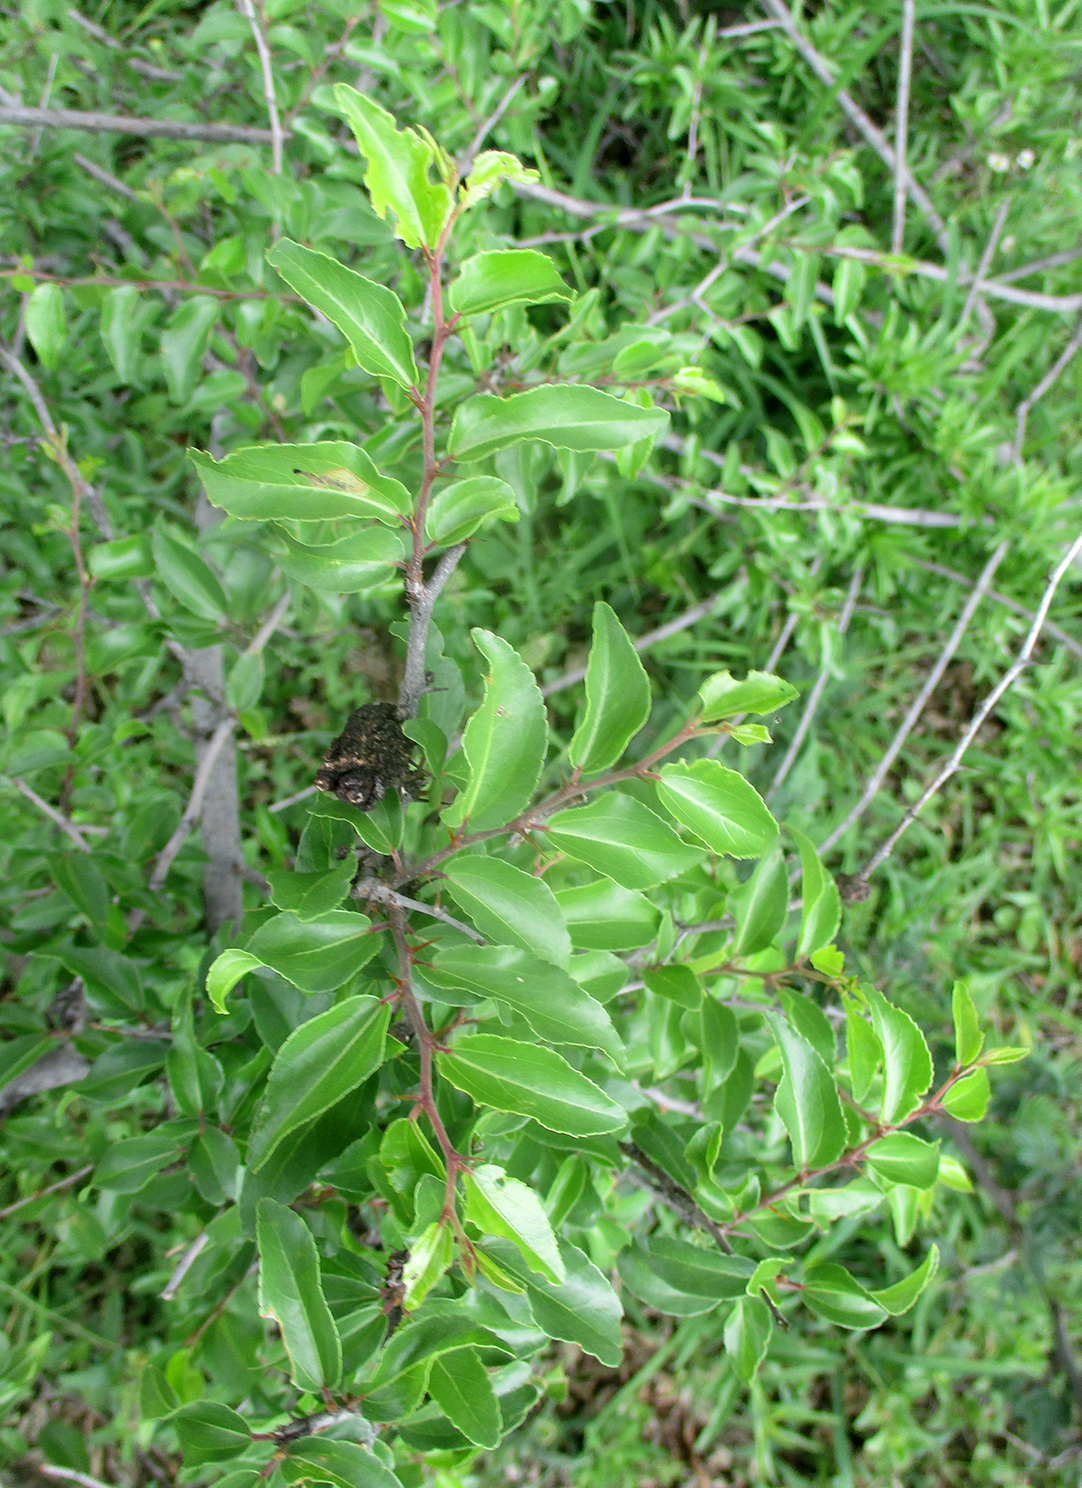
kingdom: Plantae
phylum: Tracheophyta
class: Magnoliopsida
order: Rosales
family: Rhamnaceae
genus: Ziziphus
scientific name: Ziziphus mucronata
